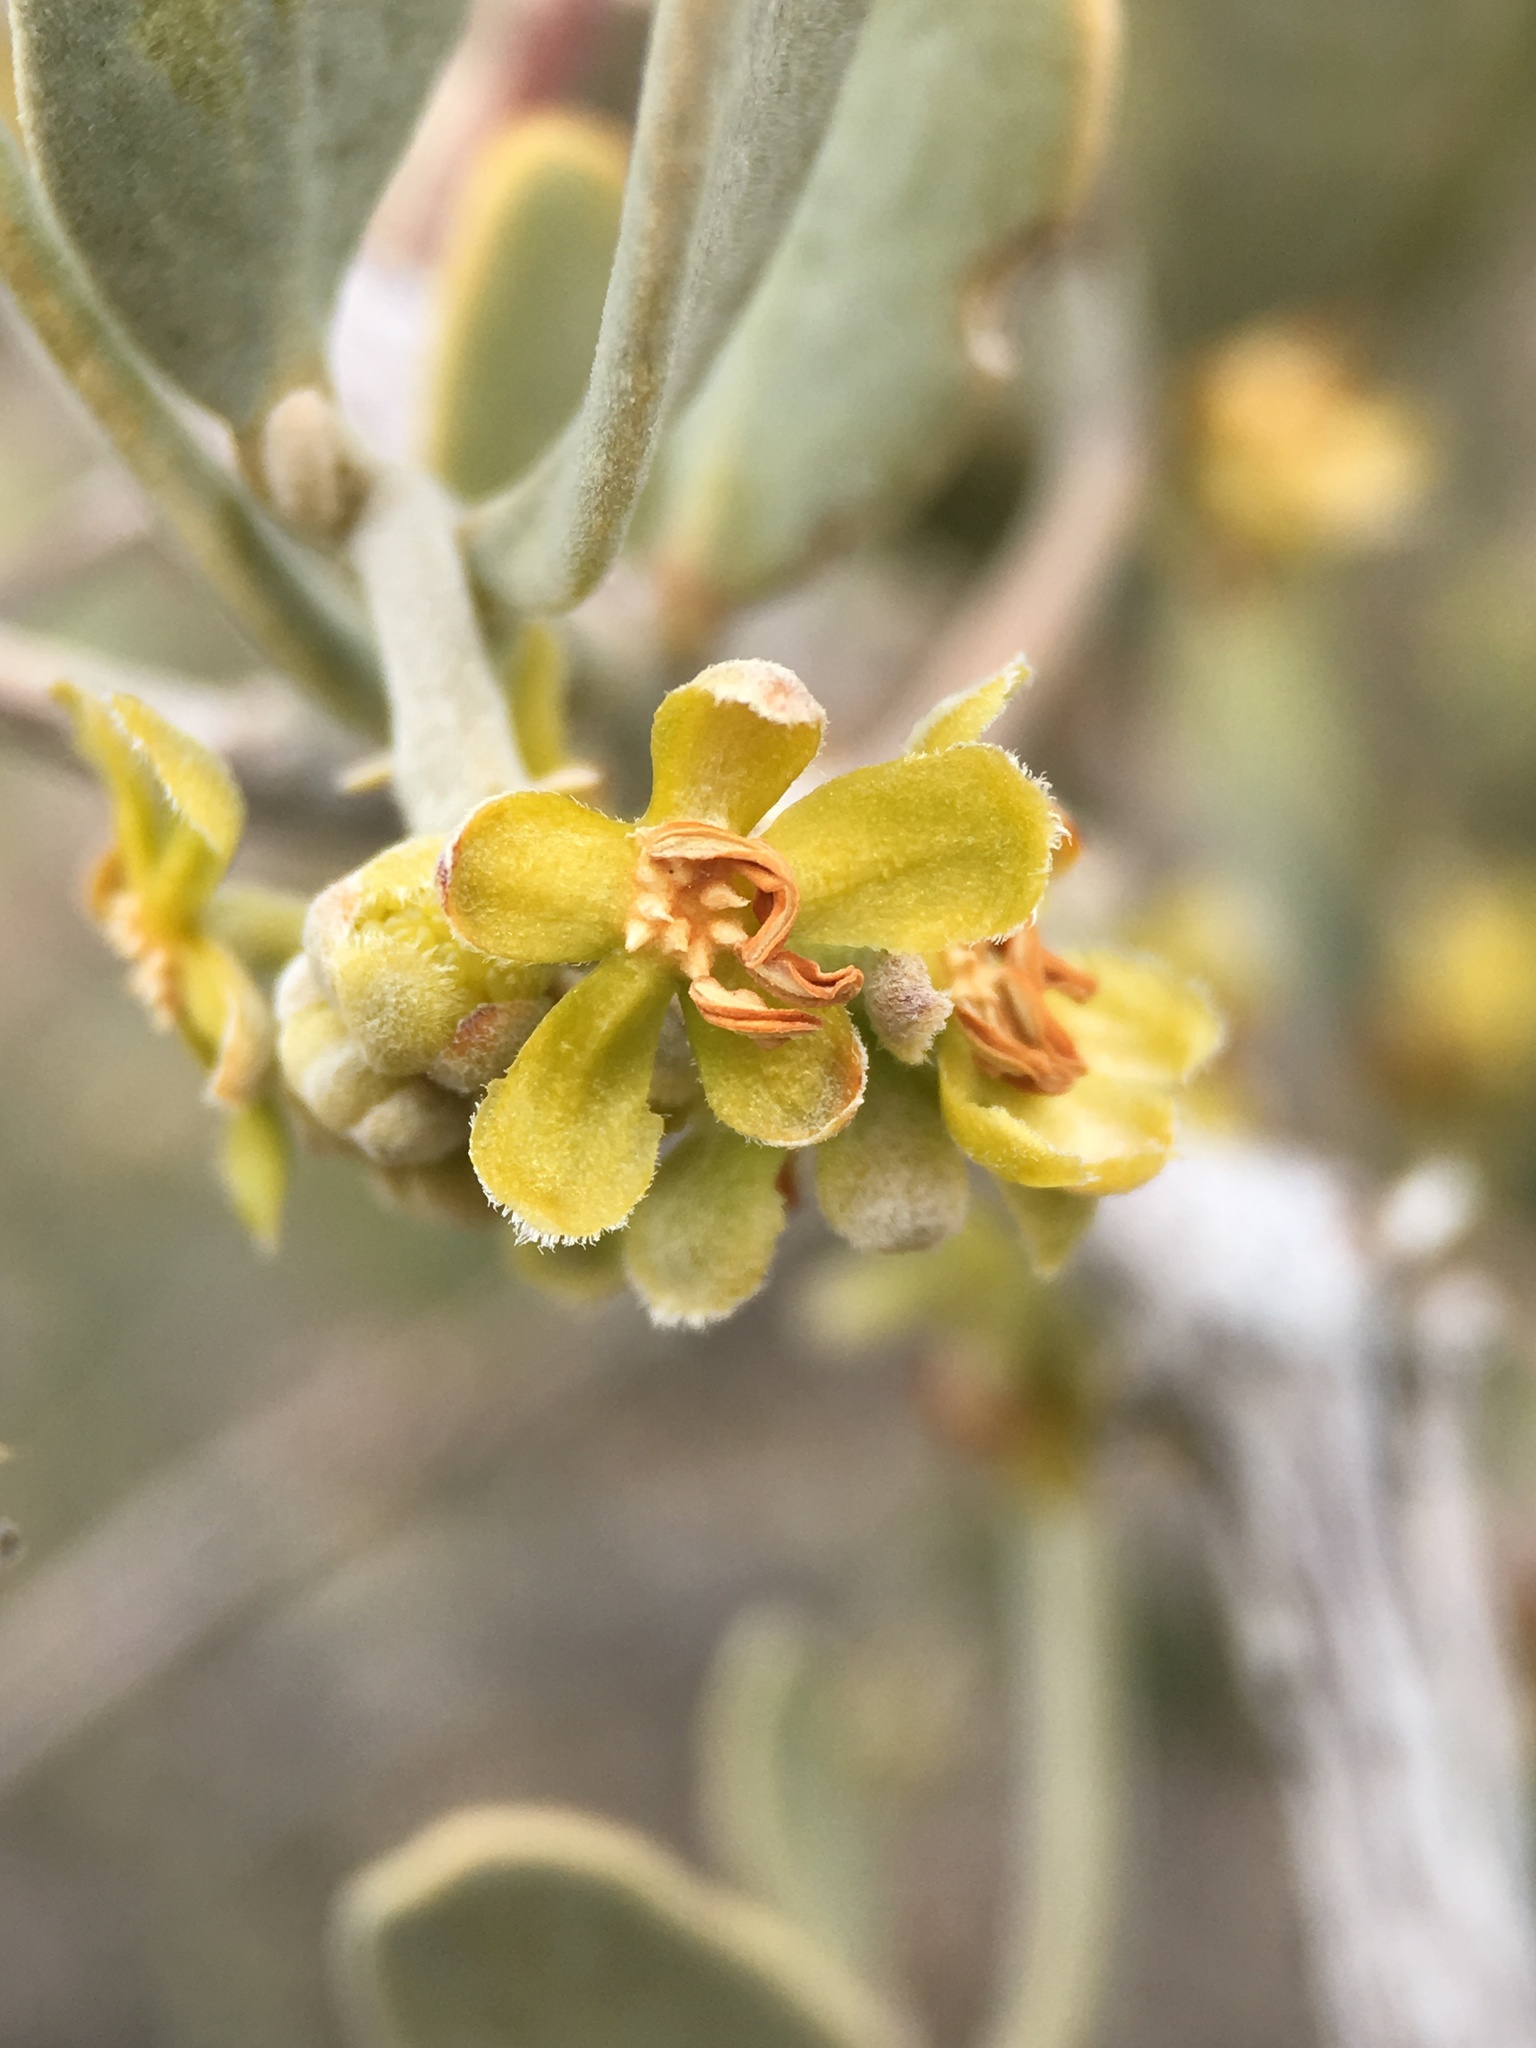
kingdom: Plantae
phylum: Tracheophyta
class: Magnoliopsida
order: Caryophyllales
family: Simmondsiaceae
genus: Simmondsia
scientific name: Simmondsia chinensis
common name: Jojoba
